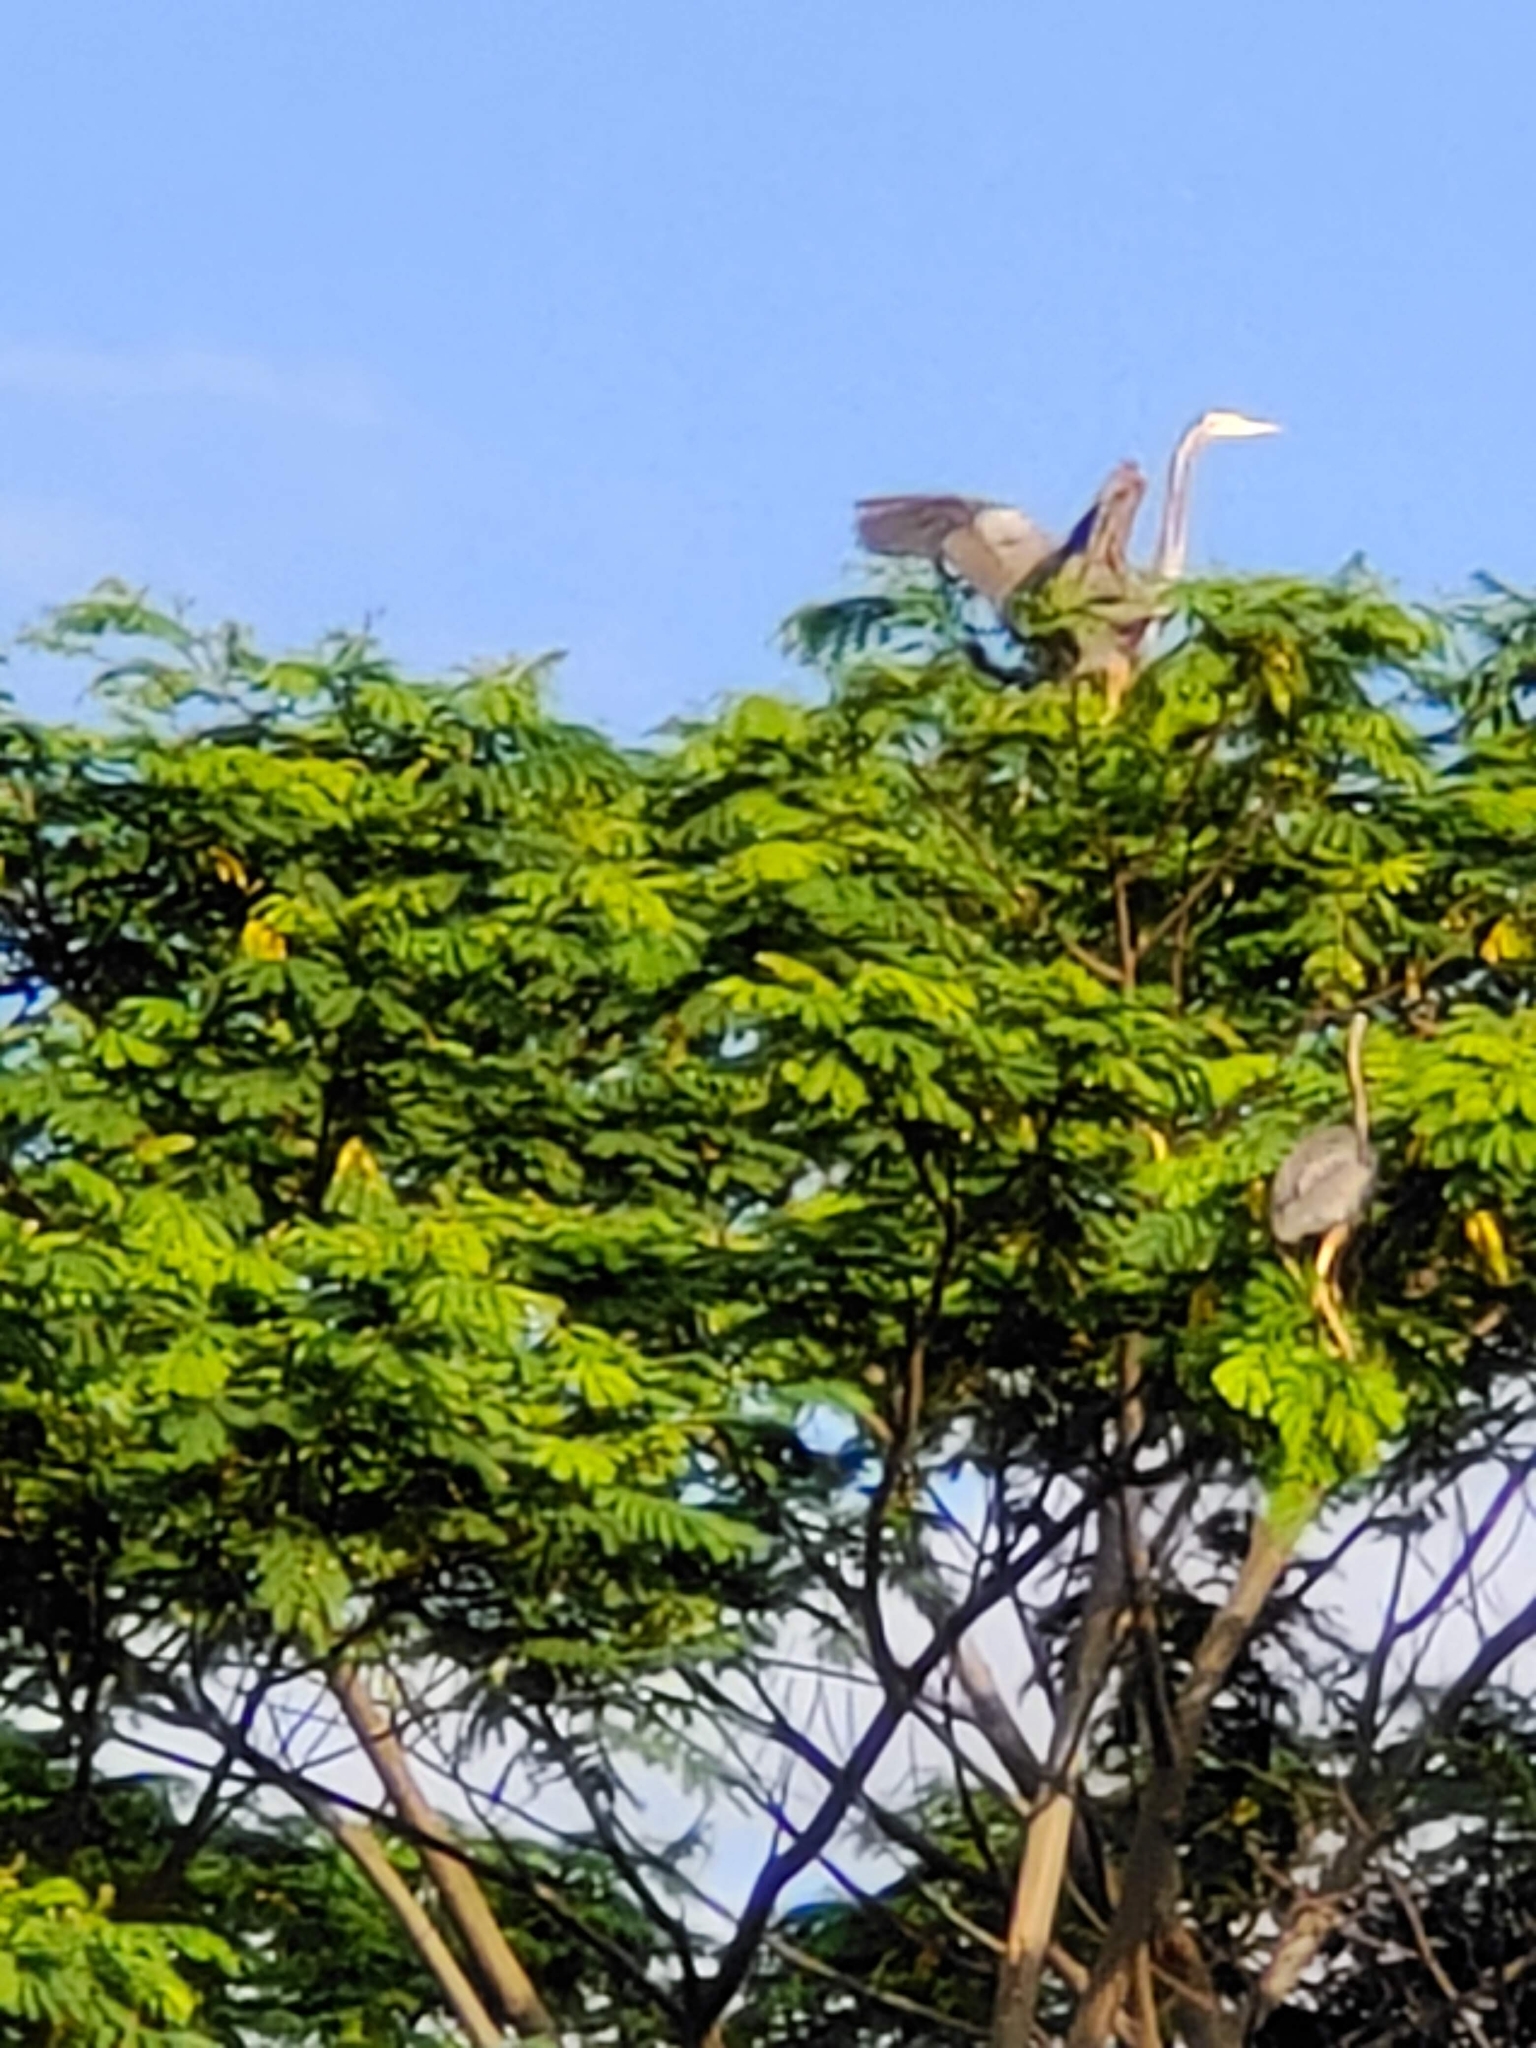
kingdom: Animalia
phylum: Chordata
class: Aves
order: Pelecaniformes
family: Ardeidae
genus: Ardea
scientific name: Ardea purpurea
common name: Purple heron
